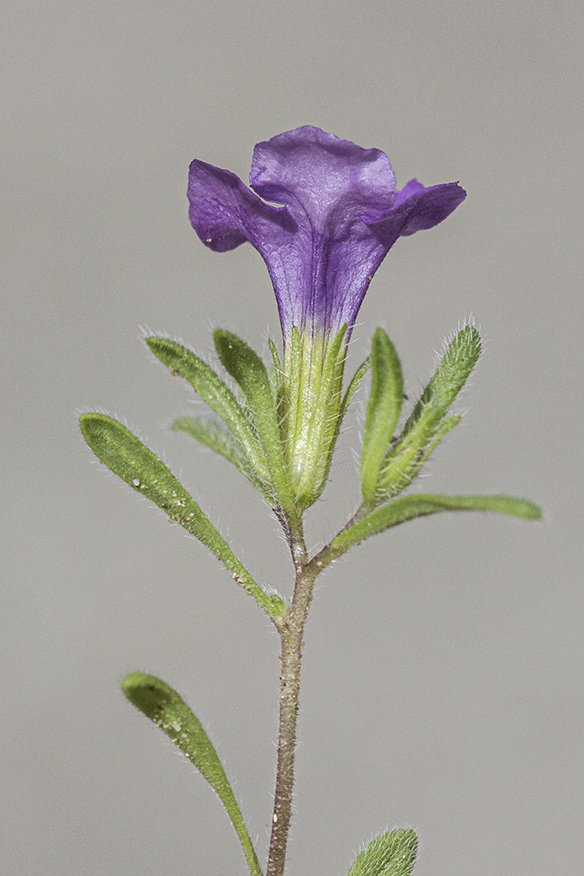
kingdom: Plantae
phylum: Tracheophyta
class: Magnoliopsida
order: Boraginales
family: Namaceae
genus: Nama
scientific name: Nama hispida
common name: Bristly nama
